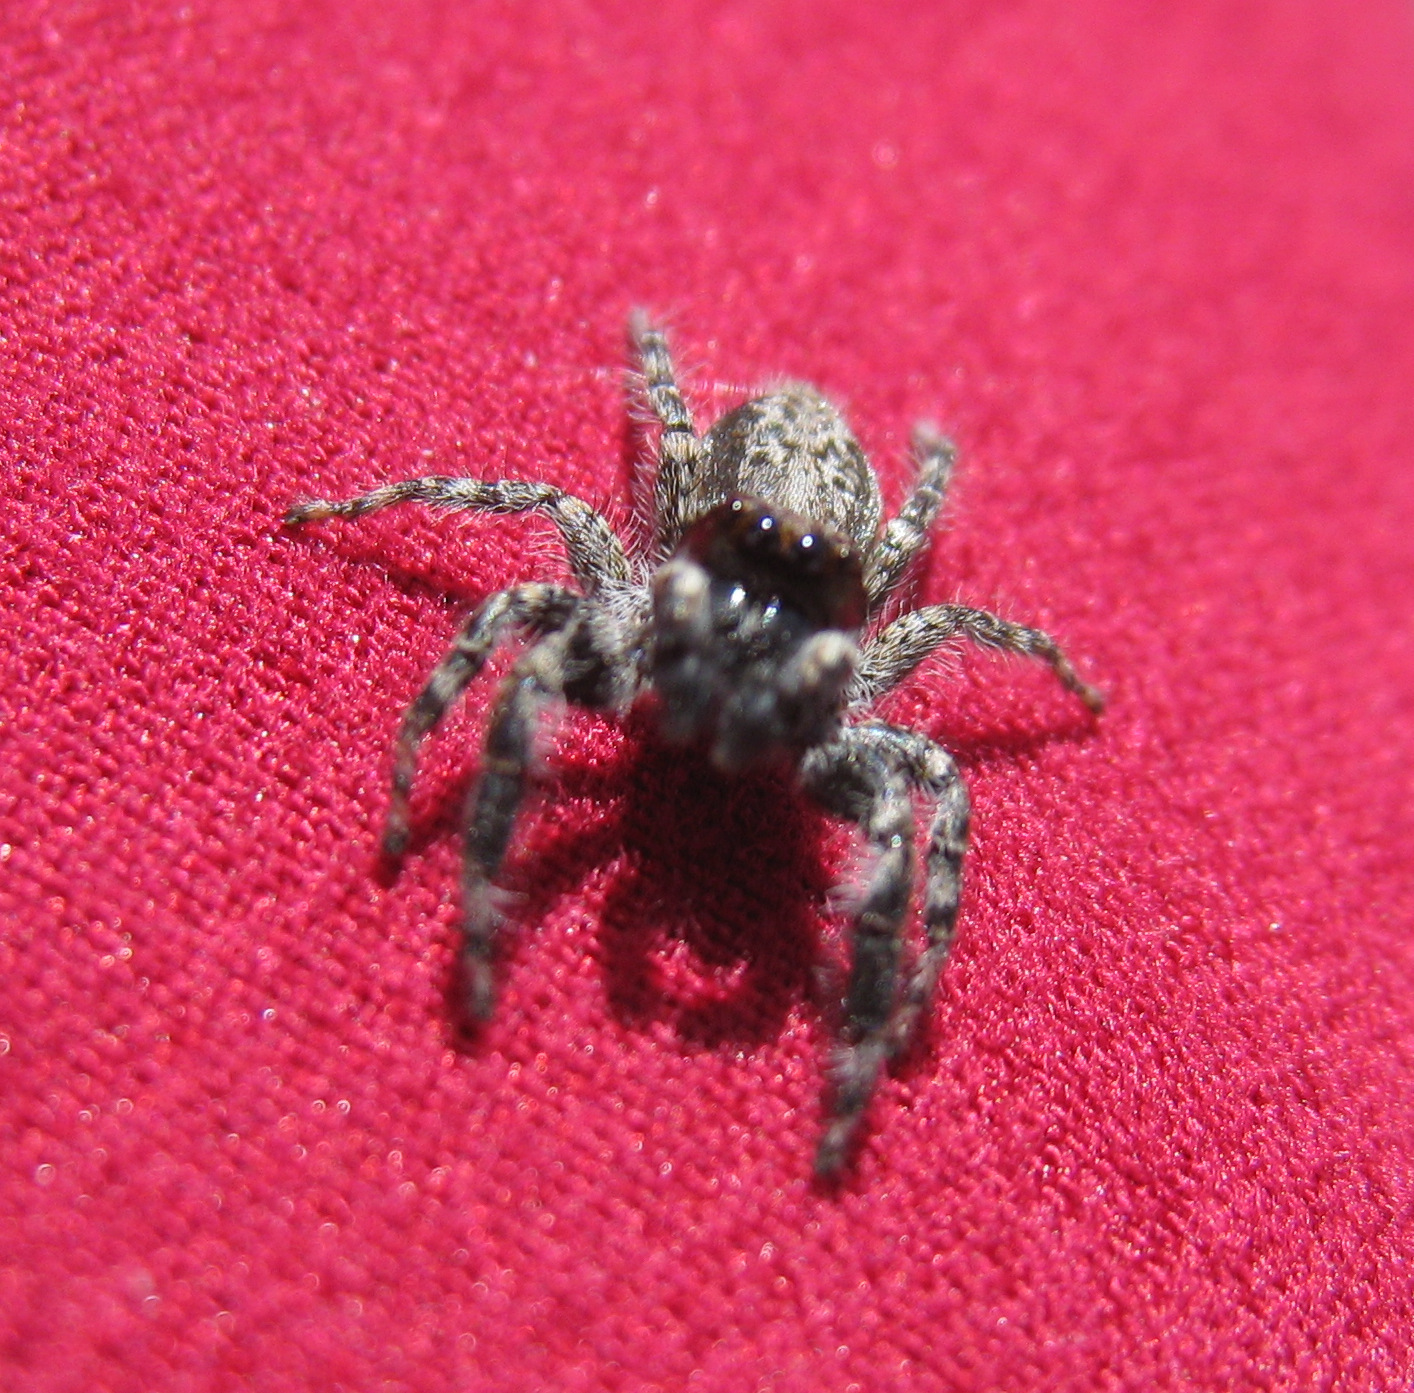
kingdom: Animalia
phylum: Arthropoda
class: Arachnida
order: Araneae
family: Salticidae
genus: Menemerus
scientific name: Menemerus taeniatus
